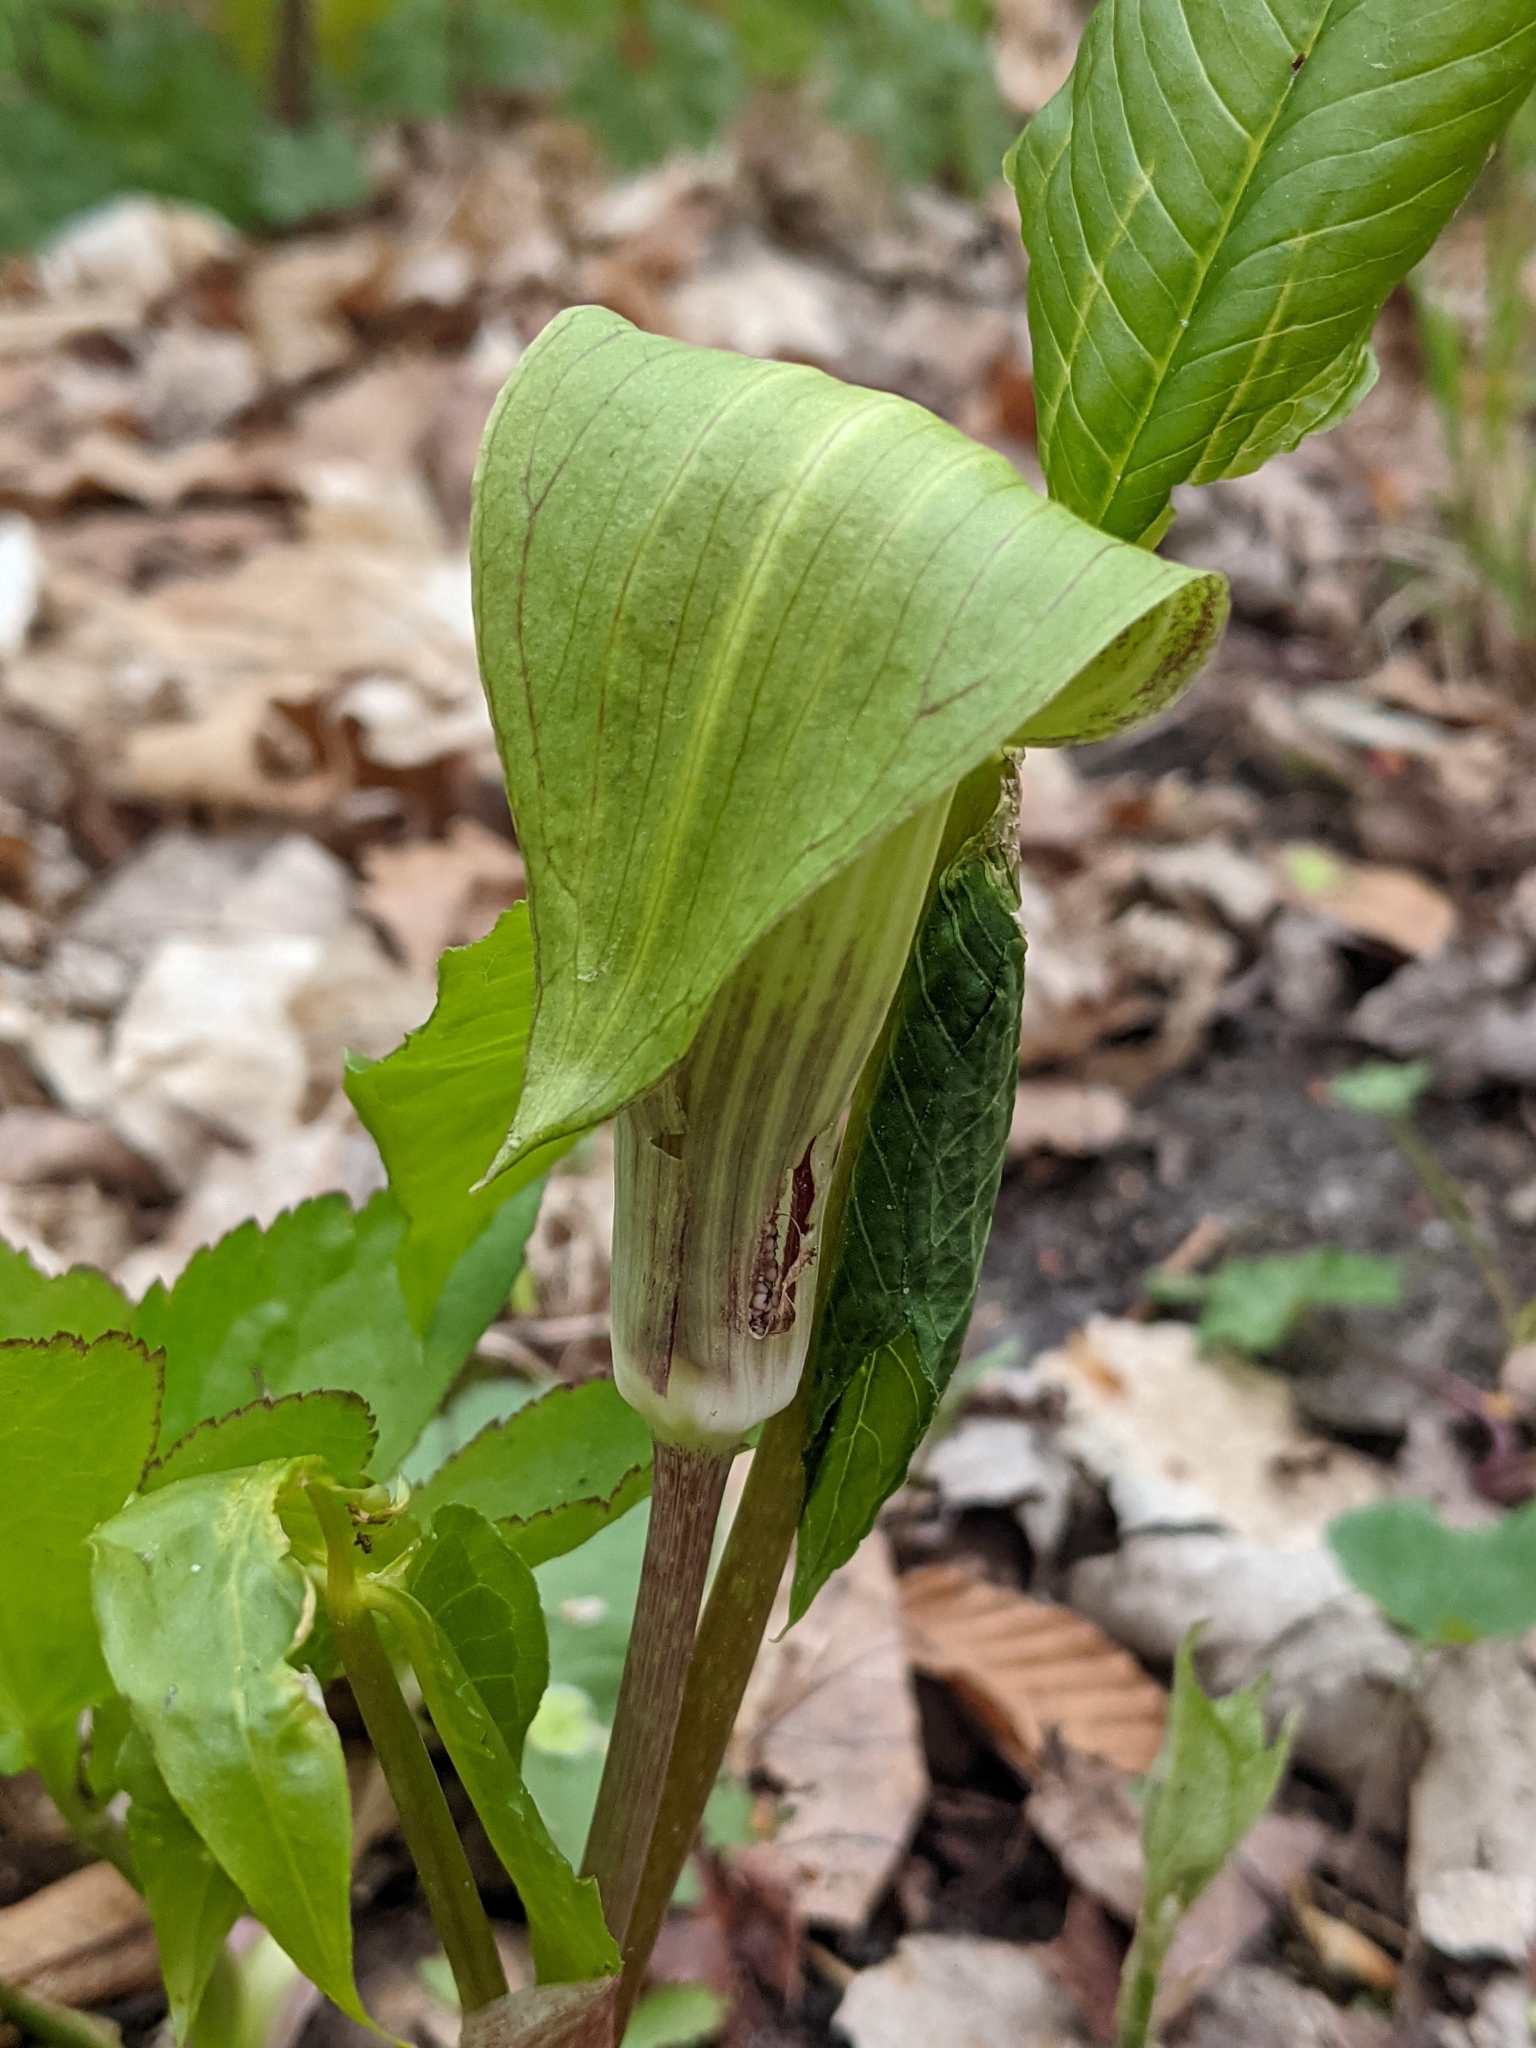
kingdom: Plantae
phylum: Tracheophyta
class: Liliopsida
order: Alismatales
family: Araceae
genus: Arisaema
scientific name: Arisaema triphyllum
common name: Jack-in-the-pulpit
